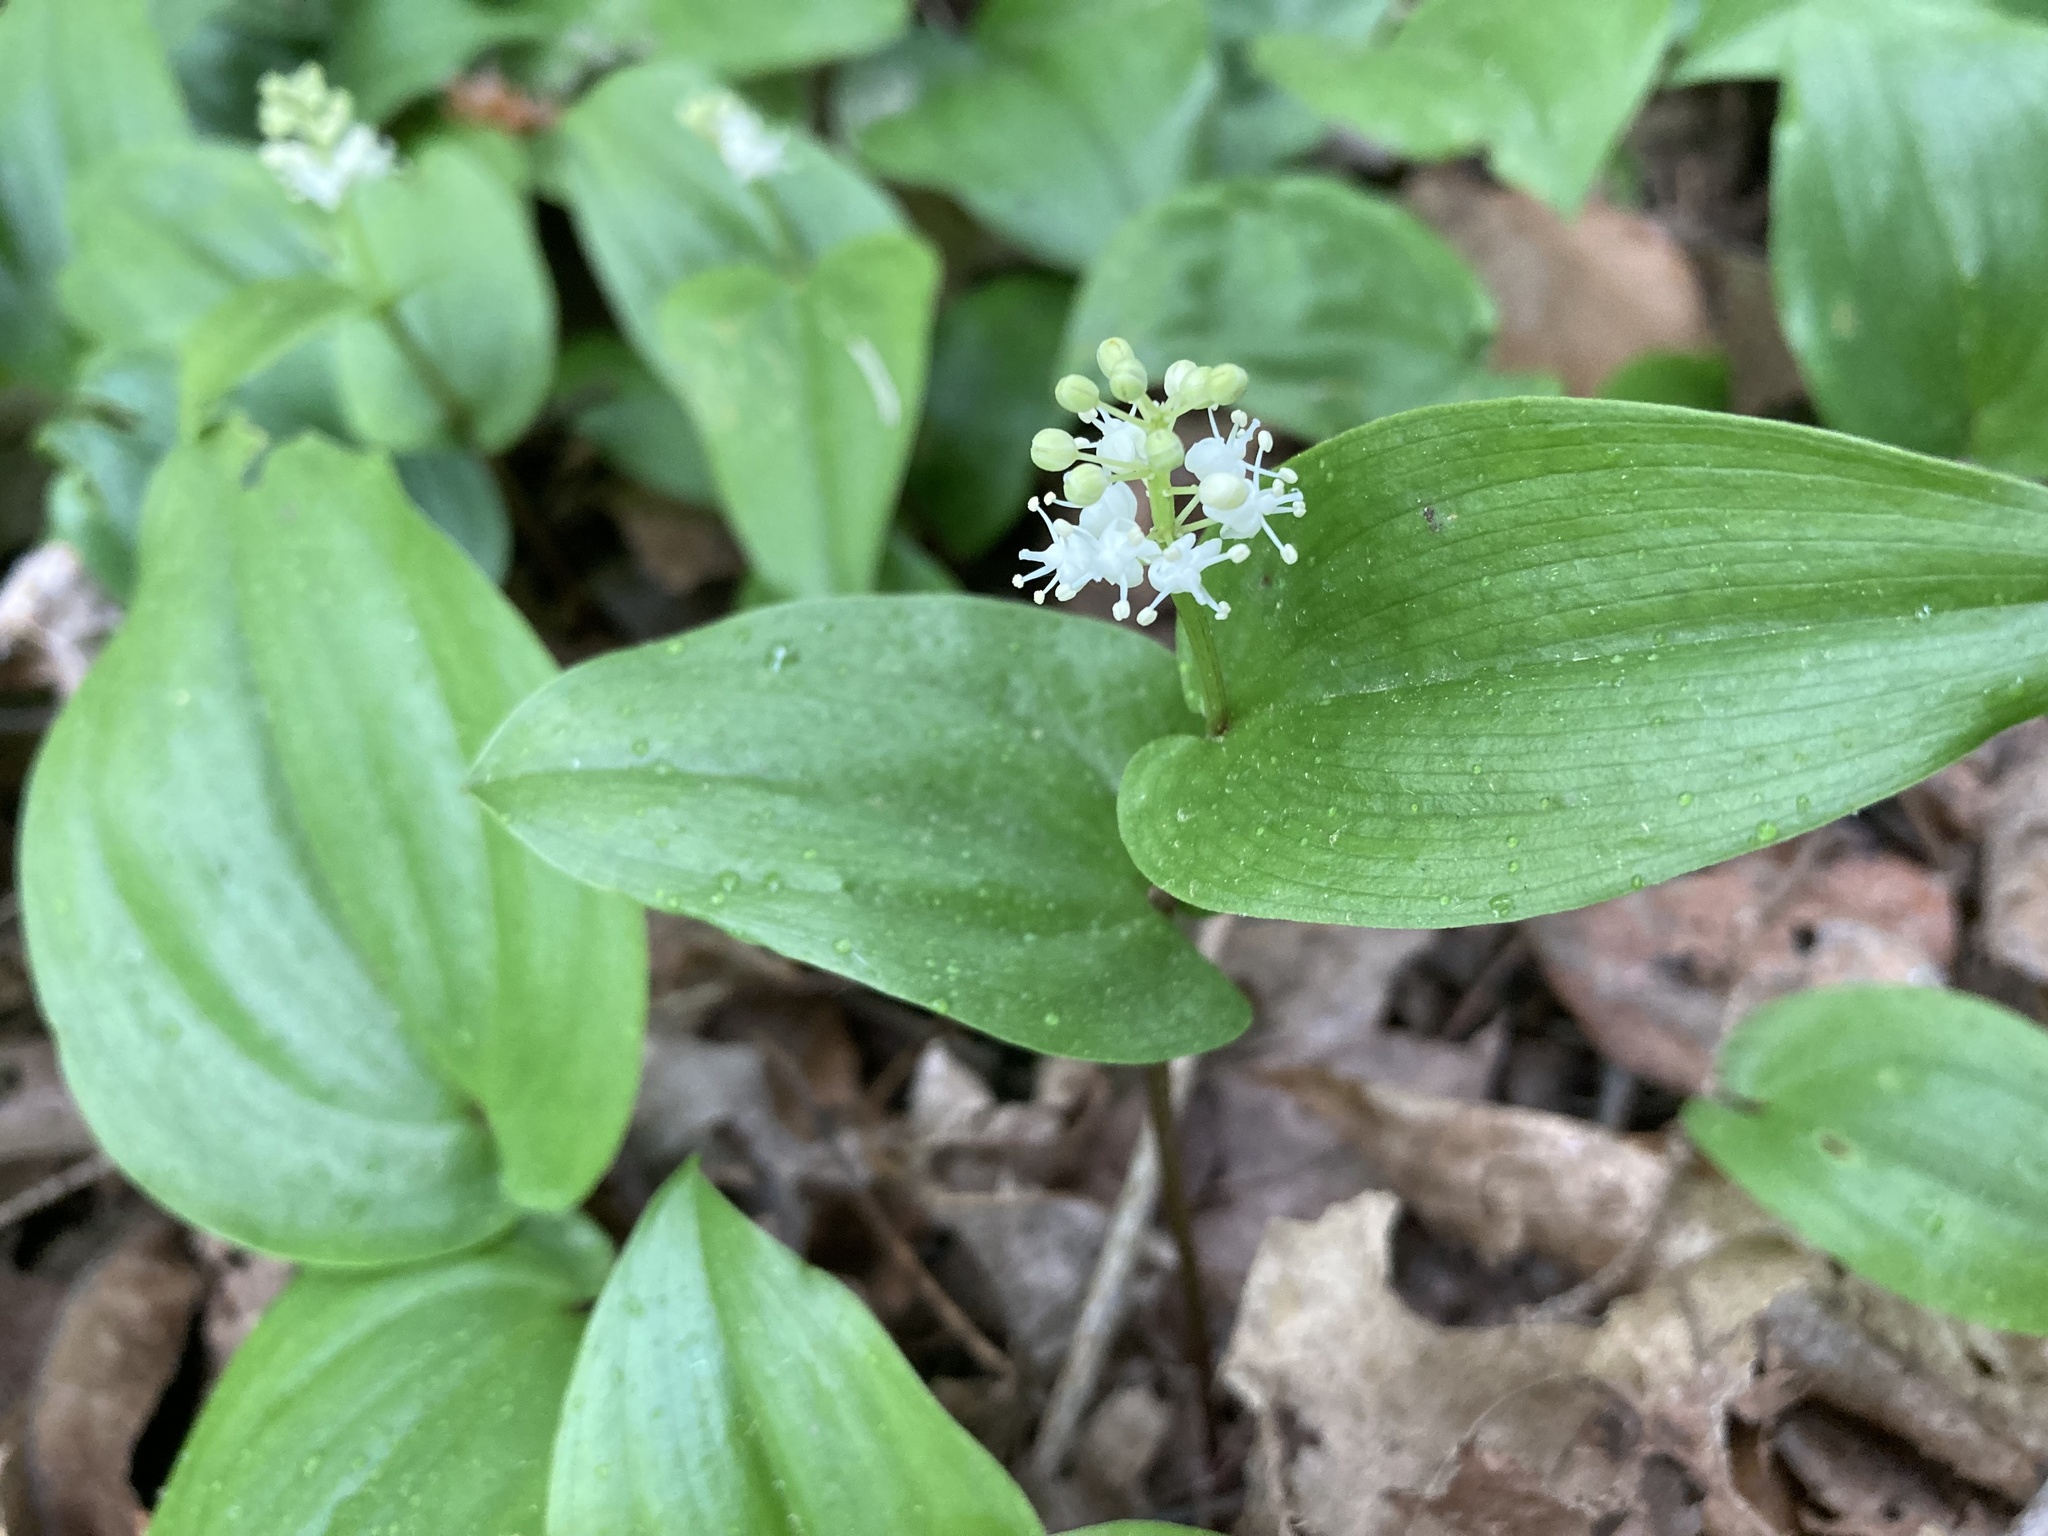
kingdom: Plantae
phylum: Tracheophyta
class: Liliopsida
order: Asparagales
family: Asparagaceae
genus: Maianthemum
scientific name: Maianthemum canadense
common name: False lily-of-the-valley
